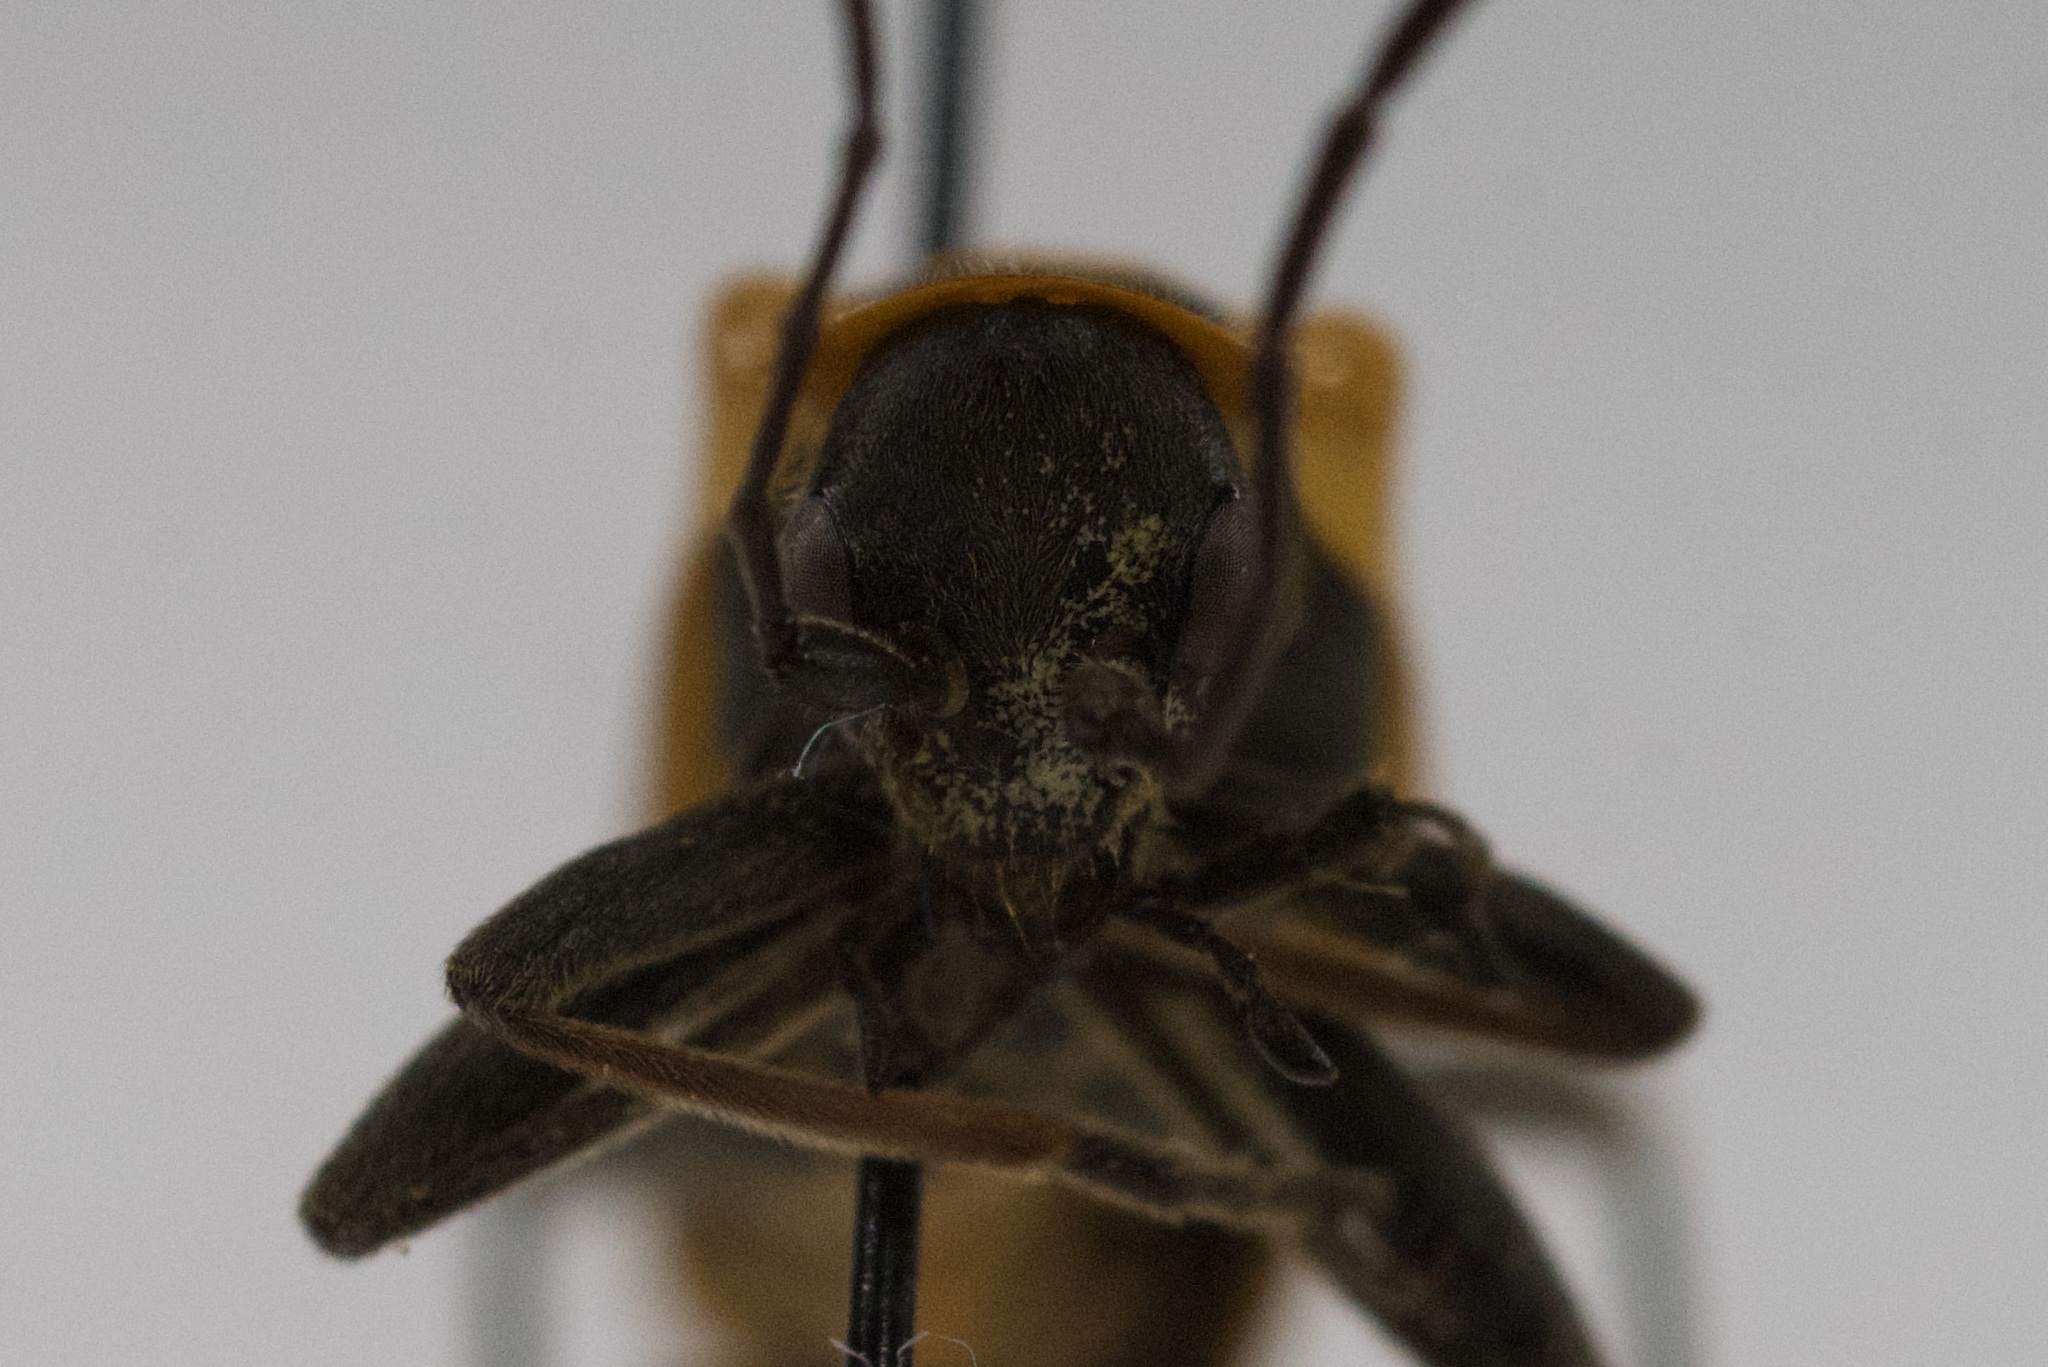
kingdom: Animalia
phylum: Arthropoda
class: Insecta
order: Coleoptera
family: Cantharidae
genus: Chauliognathus
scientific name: Chauliognathus pensylvanicus
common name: Goldenrod soldier beetle
